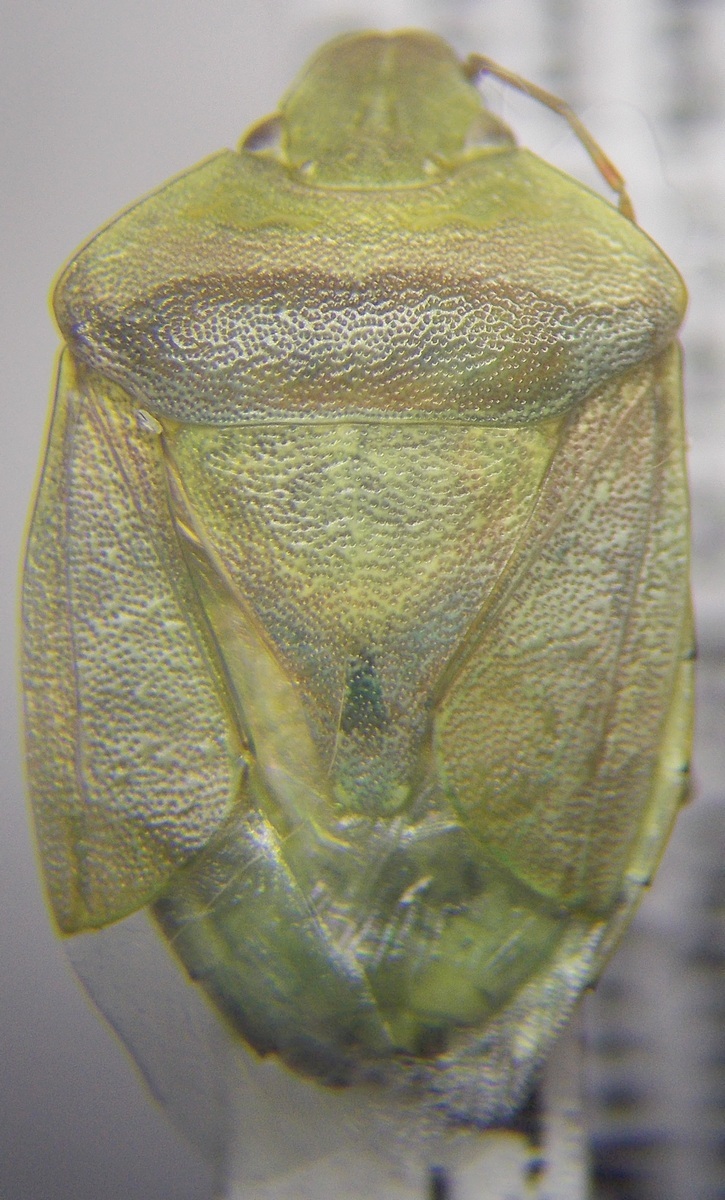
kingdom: Animalia
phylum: Arthropoda
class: Insecta
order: Hemiptera
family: Pentatomidae
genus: Acrosternum
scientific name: Acrosternum
